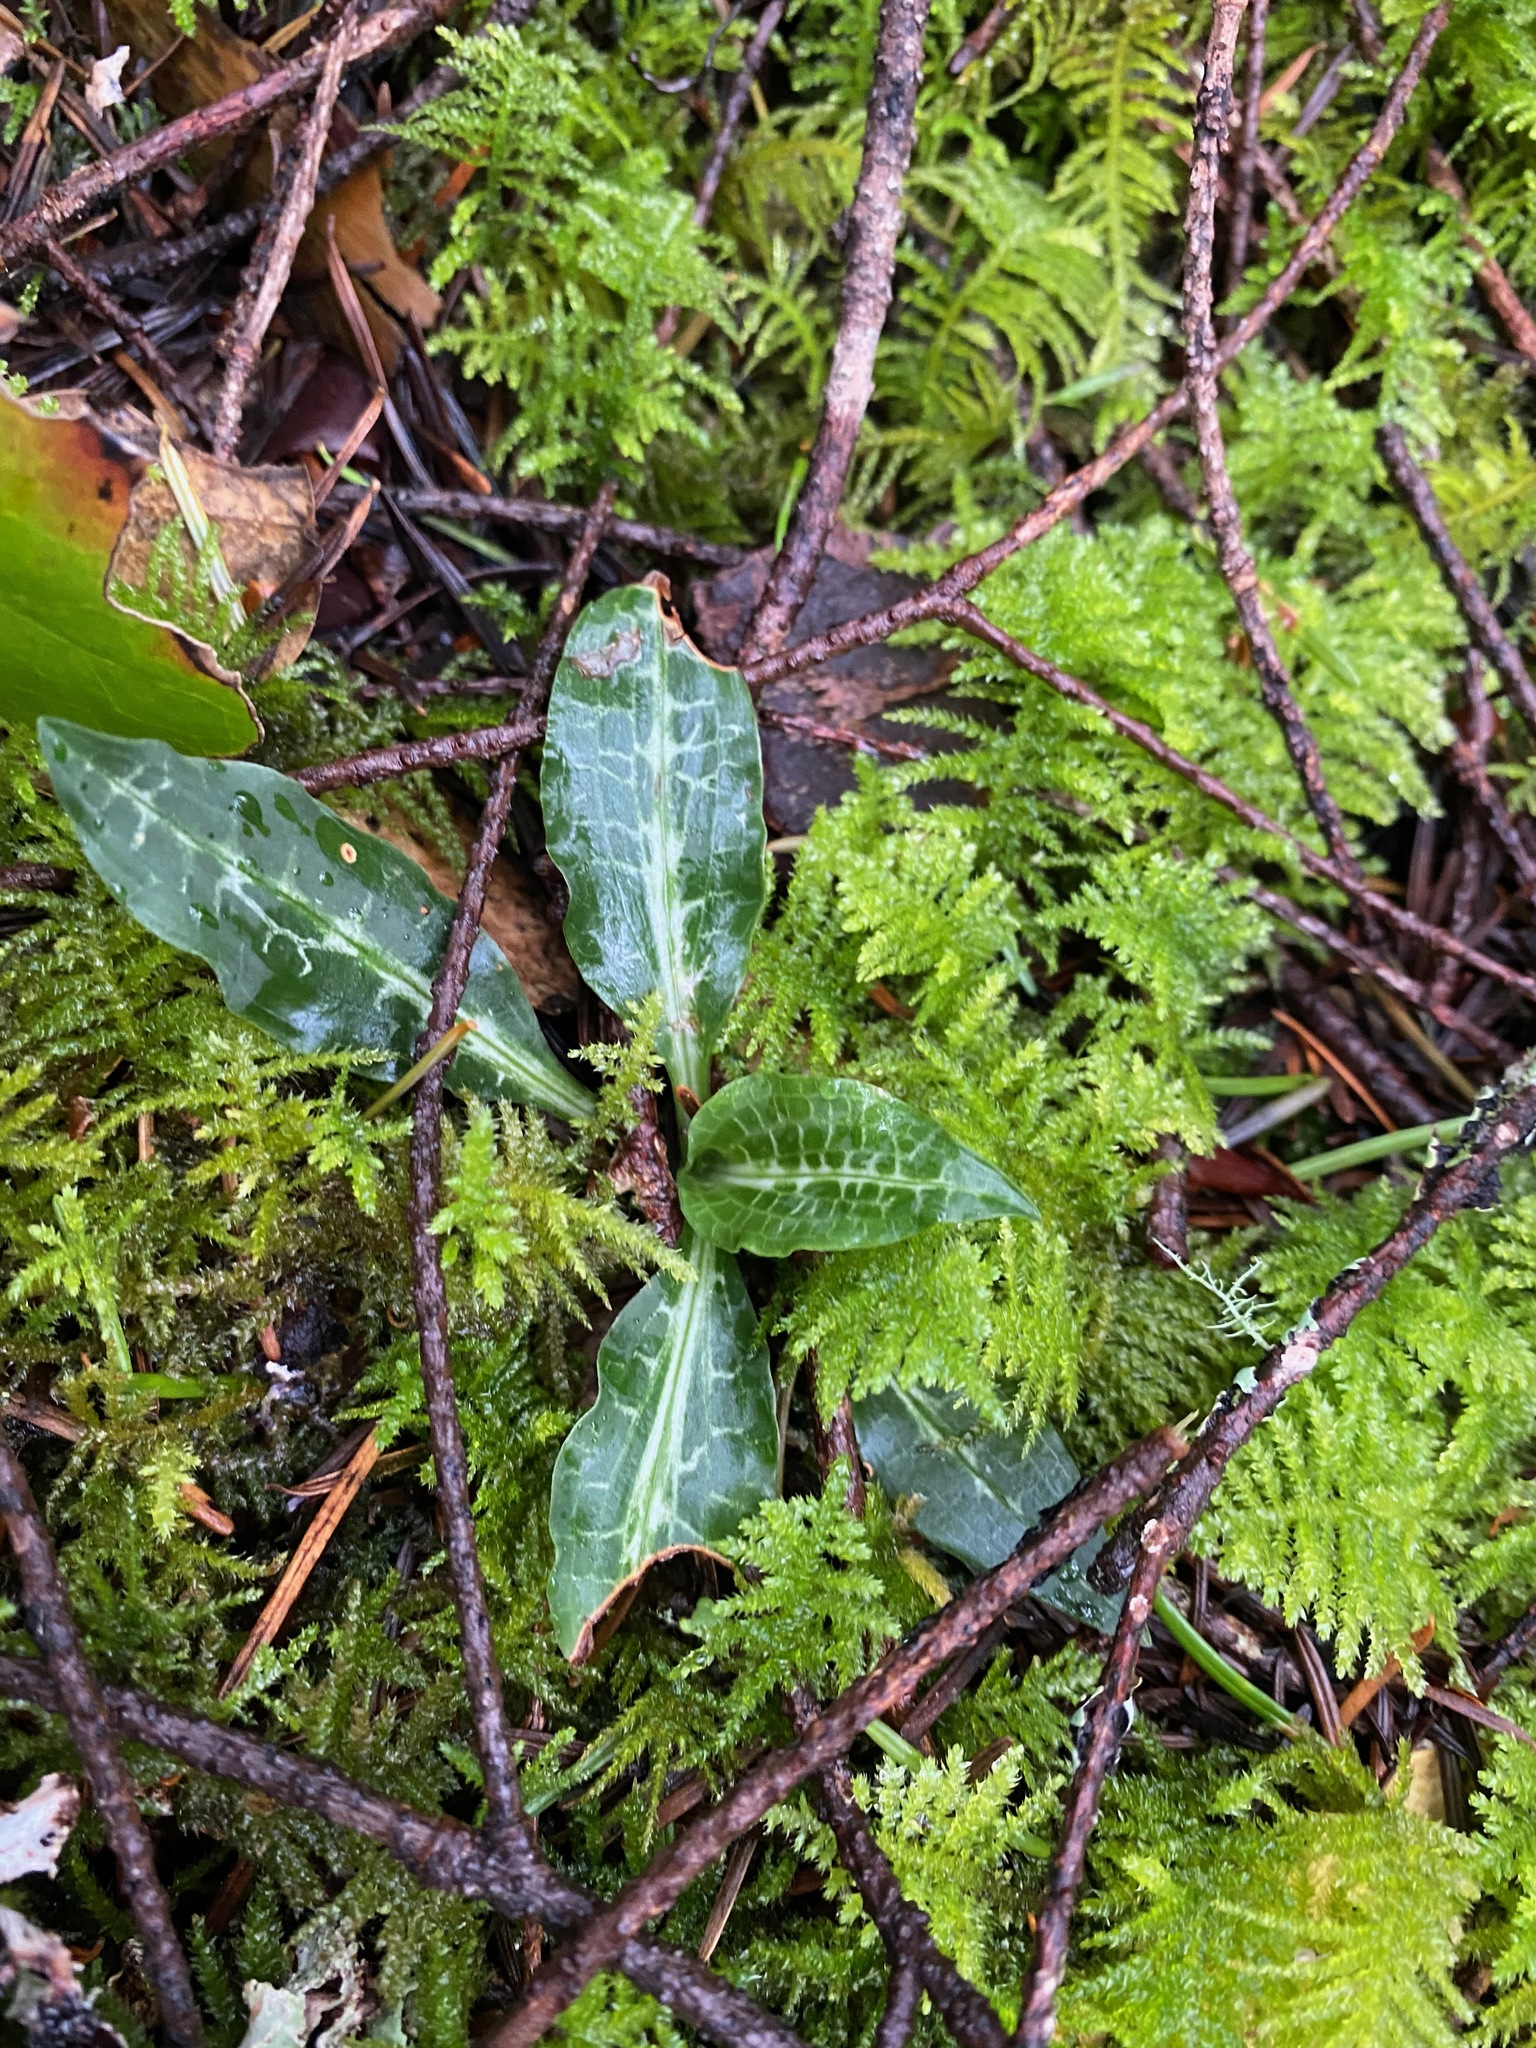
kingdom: Plantae
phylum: Tracheophyta
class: Liliopsida
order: Asparagales
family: Orchidaceae
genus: Goodyera
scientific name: Goodyera oblongifolia
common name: Giant rattlesnake-plantain
